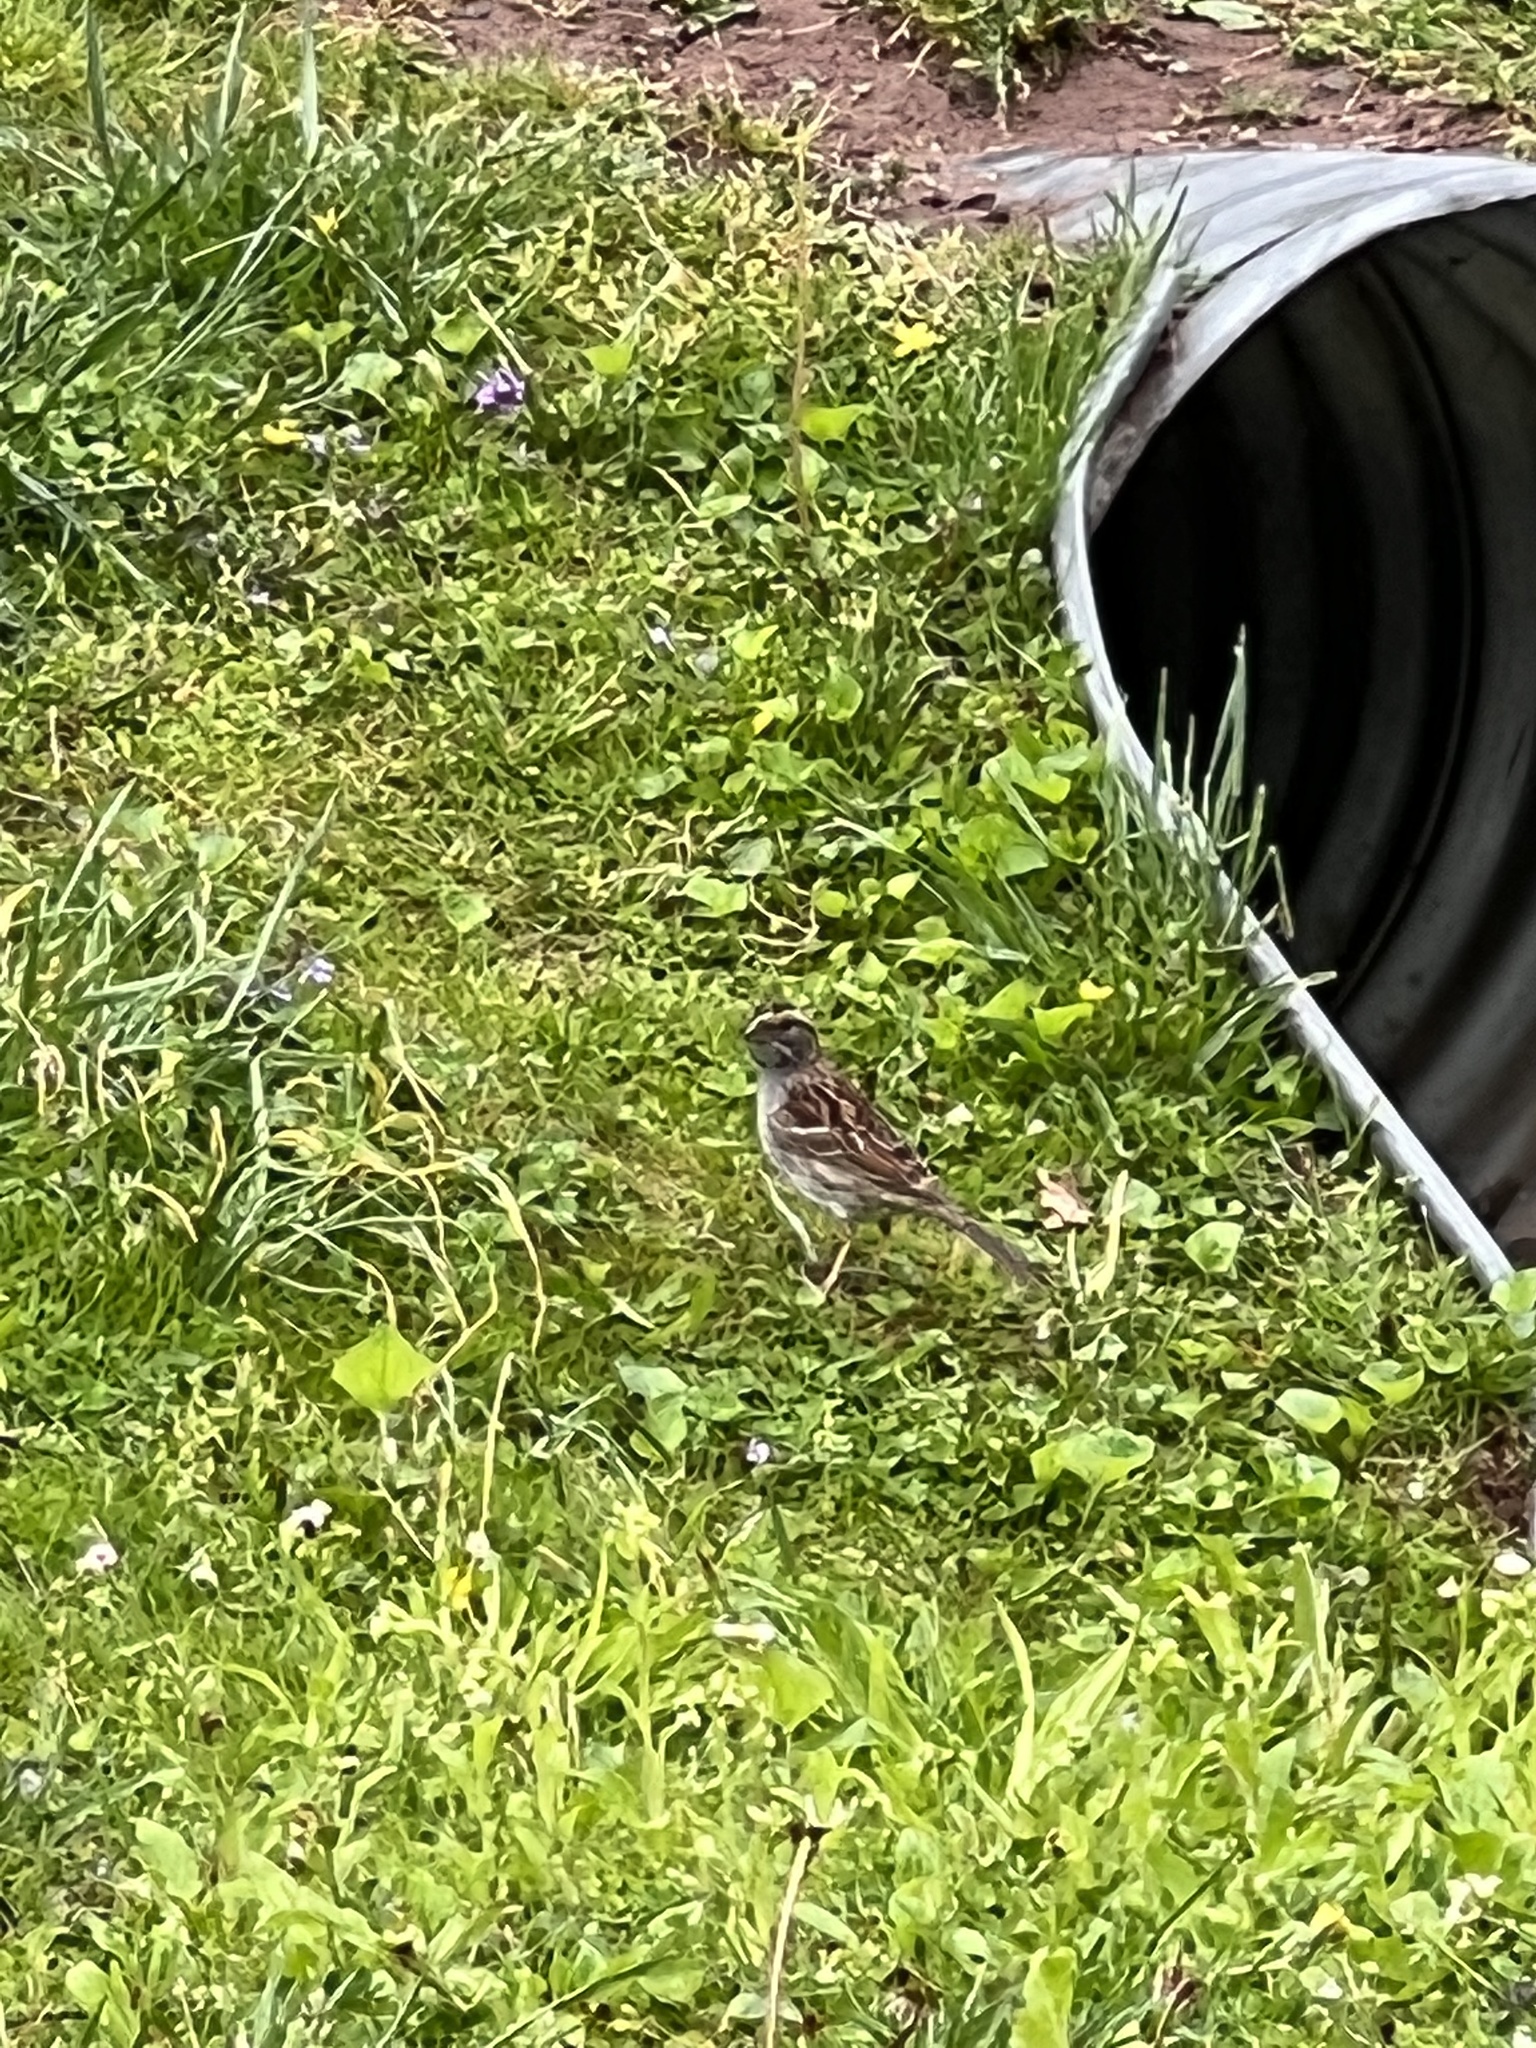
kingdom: Animalia
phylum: Chordata
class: Aves
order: Passeriformes
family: Passerellidae
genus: Zonotrichia
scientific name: Zonotrichia albicollis
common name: White-throated sparrow
